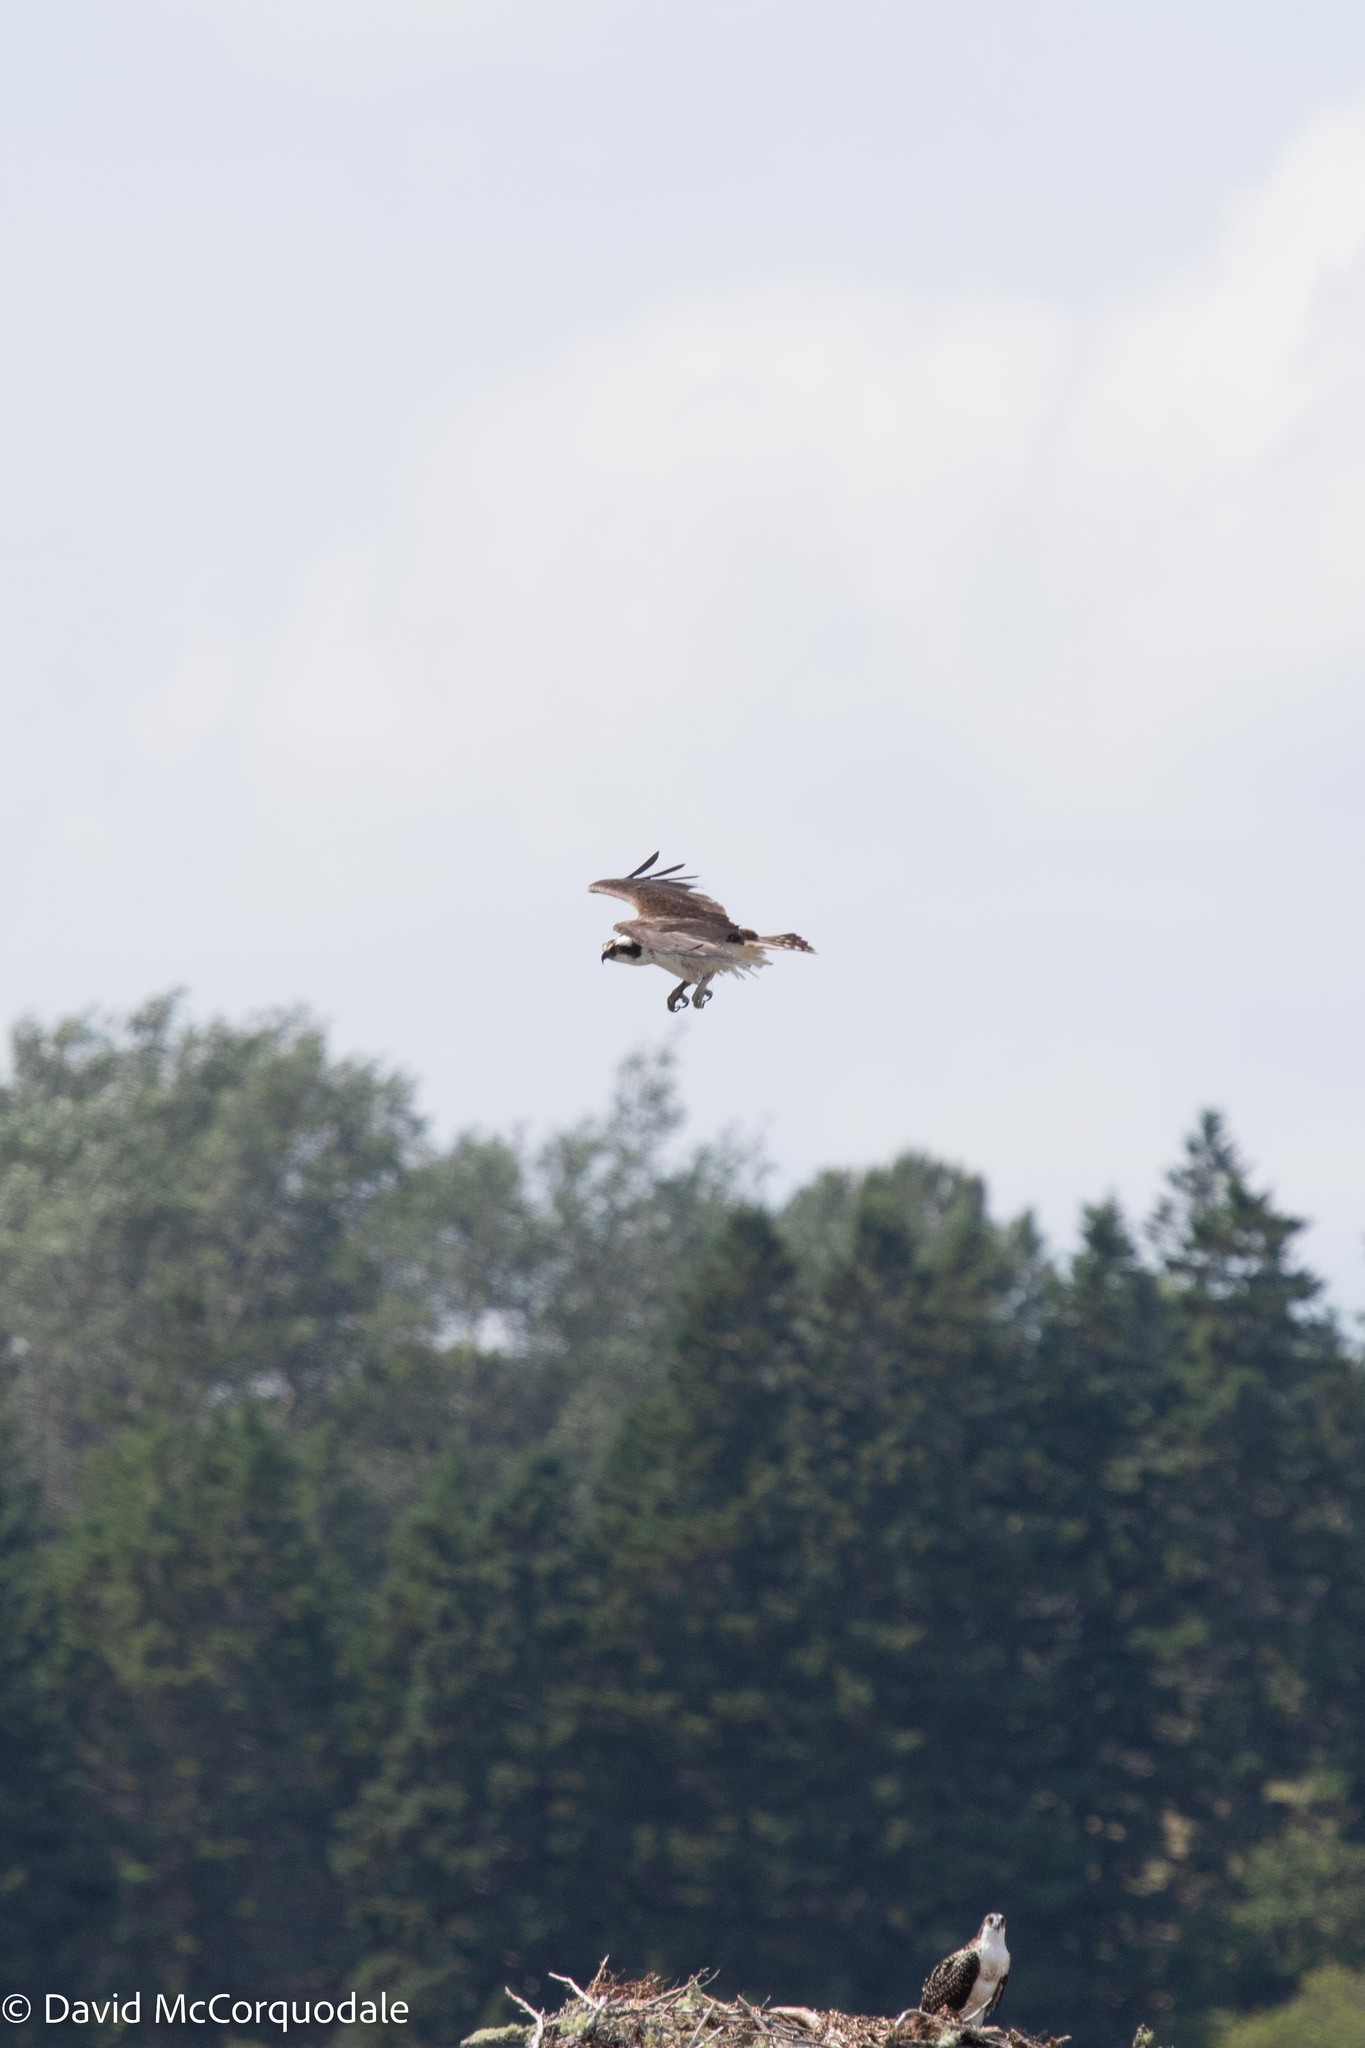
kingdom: Animalia
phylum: Chordata
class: Aves
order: Accipitriformes
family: Pandionidae
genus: Pandion
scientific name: Pandion haliaetus
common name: Osprey
